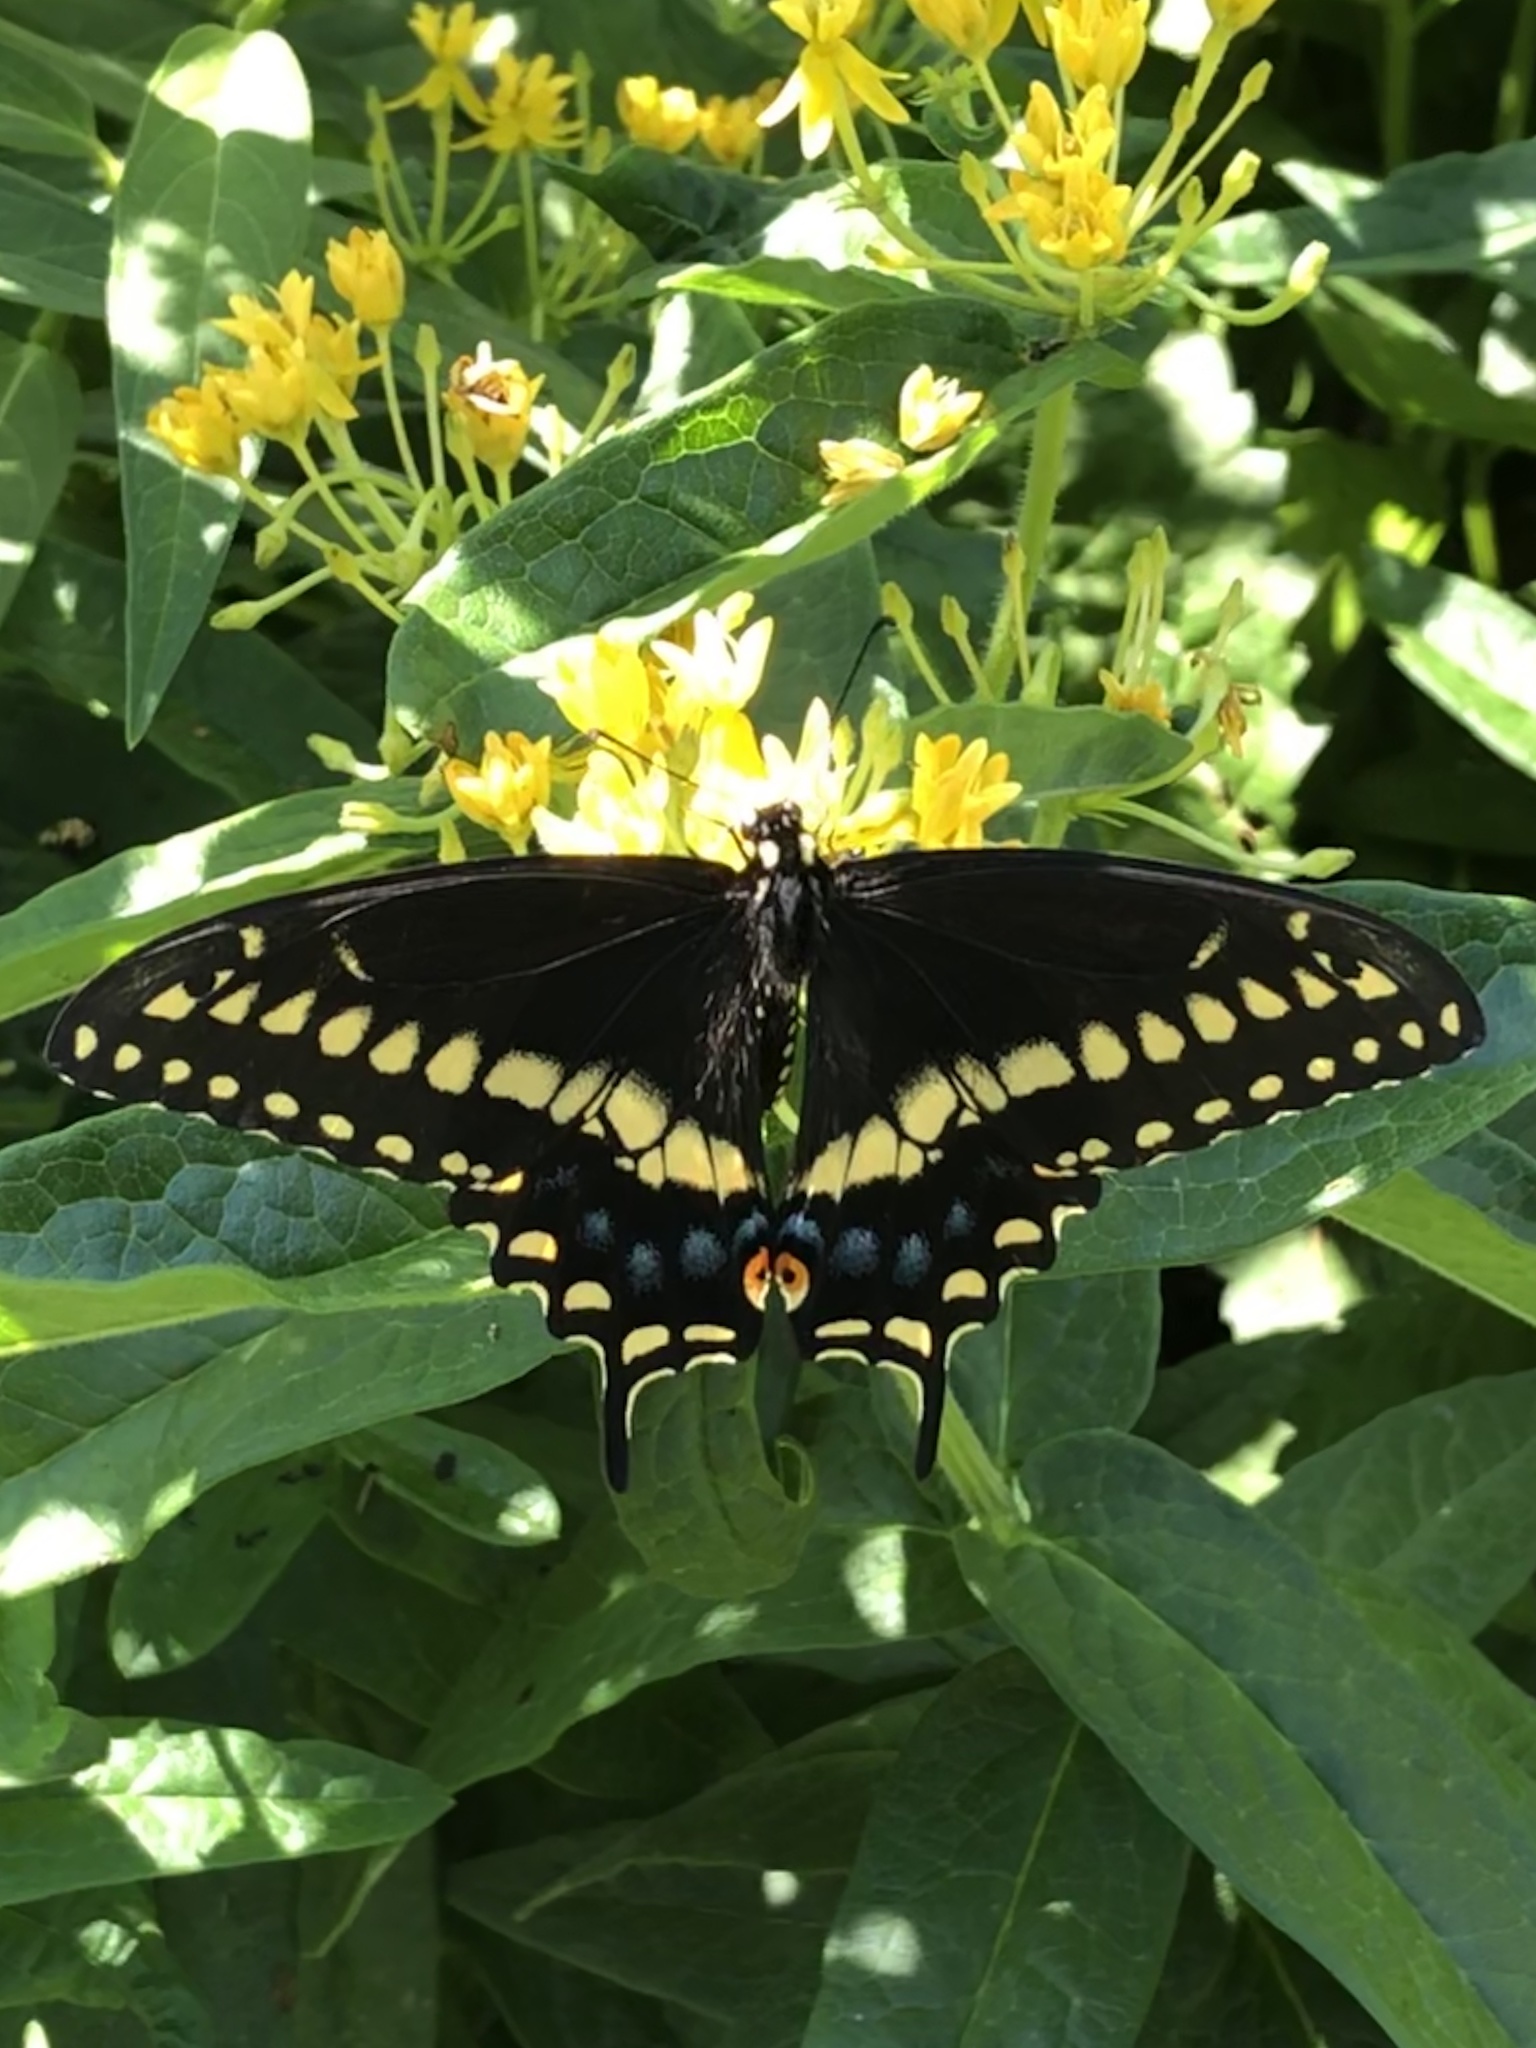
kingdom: Animalia
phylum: Arthropoda
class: Insecta
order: Lepidoptera
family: Papilionidae
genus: Papilio
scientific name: Papilio polyxenes
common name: Black swallowtail
